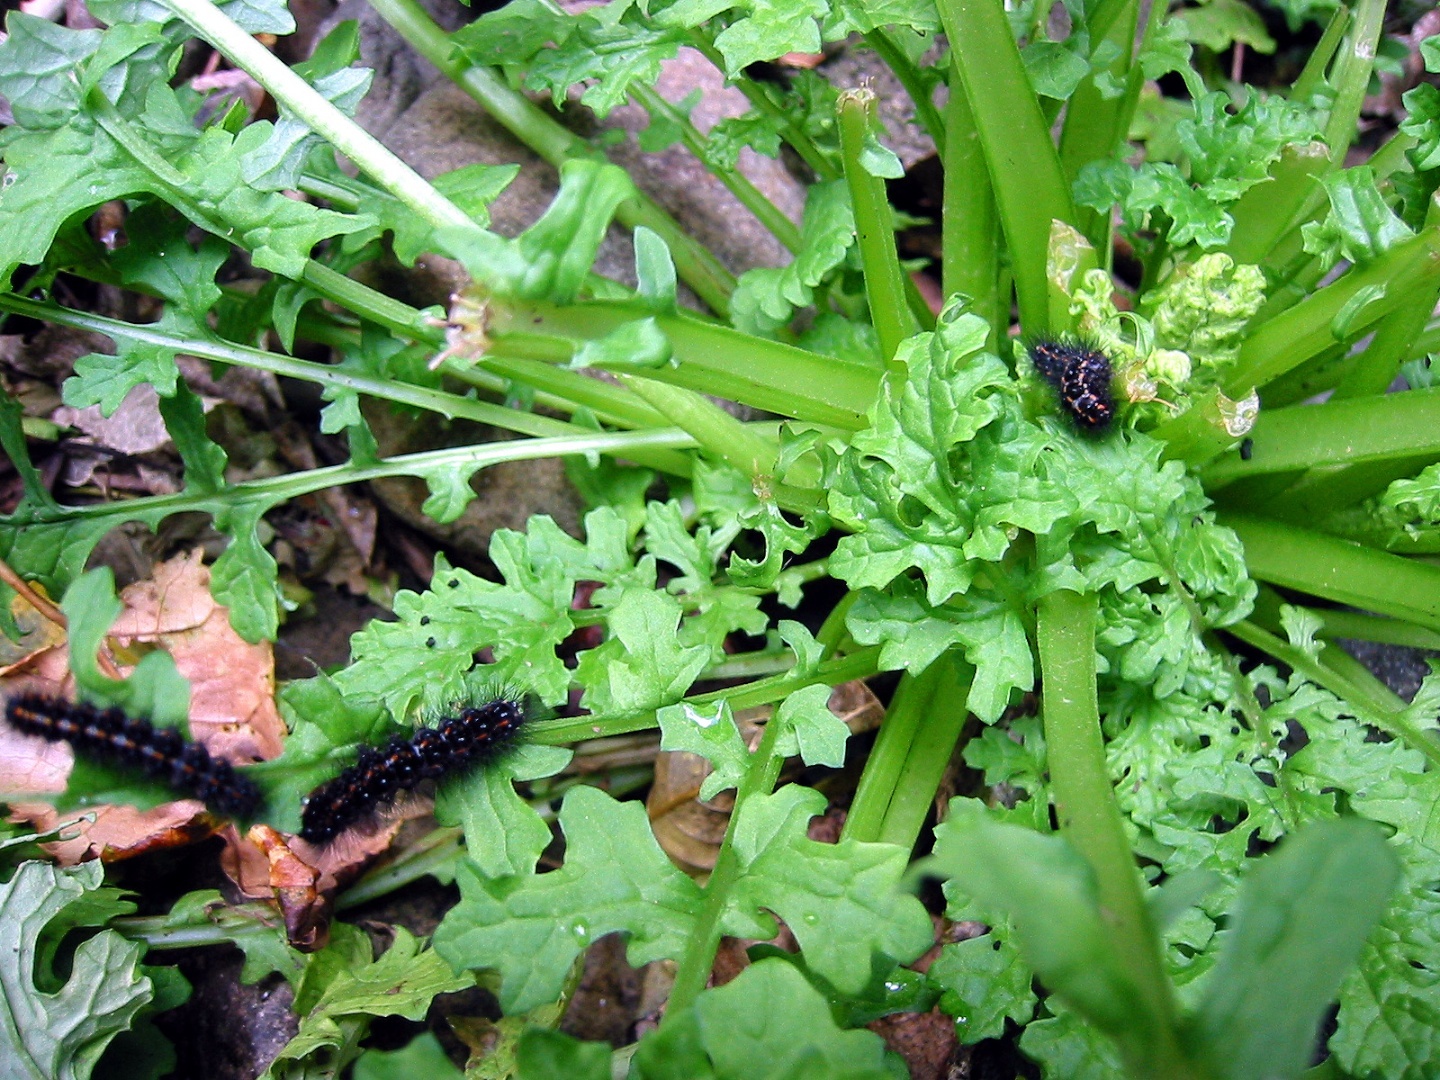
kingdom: Animalia
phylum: Arthropoda
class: Insecta
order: Lepidoptera
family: Erebidae
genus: Nyctemera
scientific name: Nyctemera annulatum
